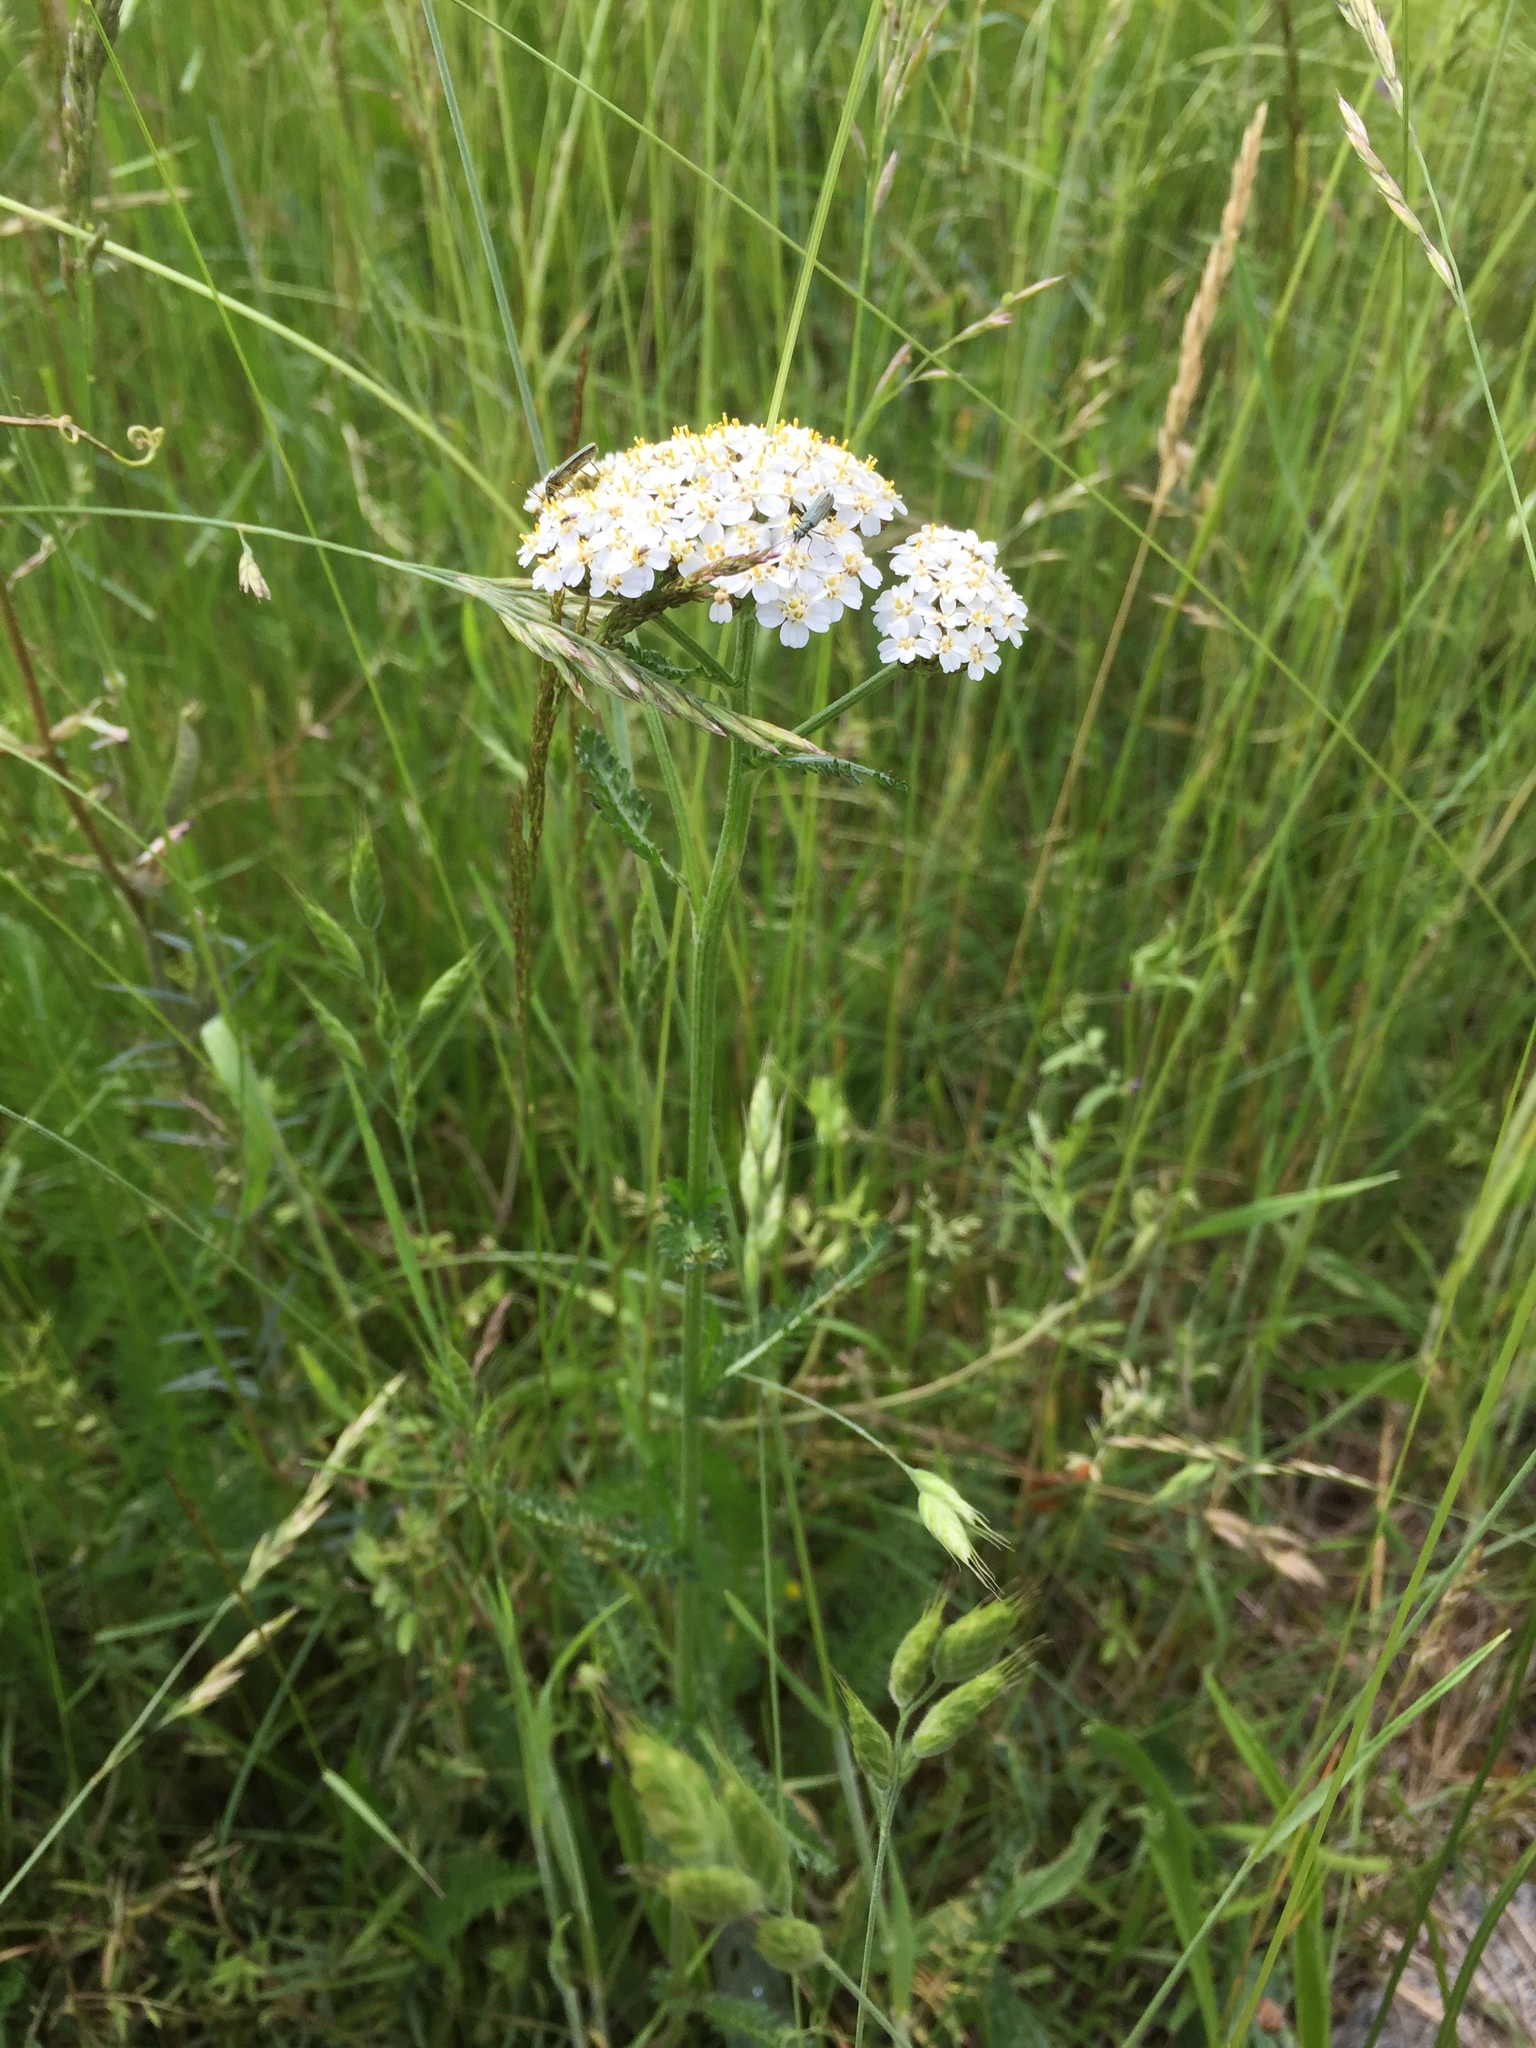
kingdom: Plantae
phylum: Tracheophyta
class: Magnoliopsida
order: Asterales
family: Asteraceae
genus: Achillea
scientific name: Achillea millefolium
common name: Yarrow
